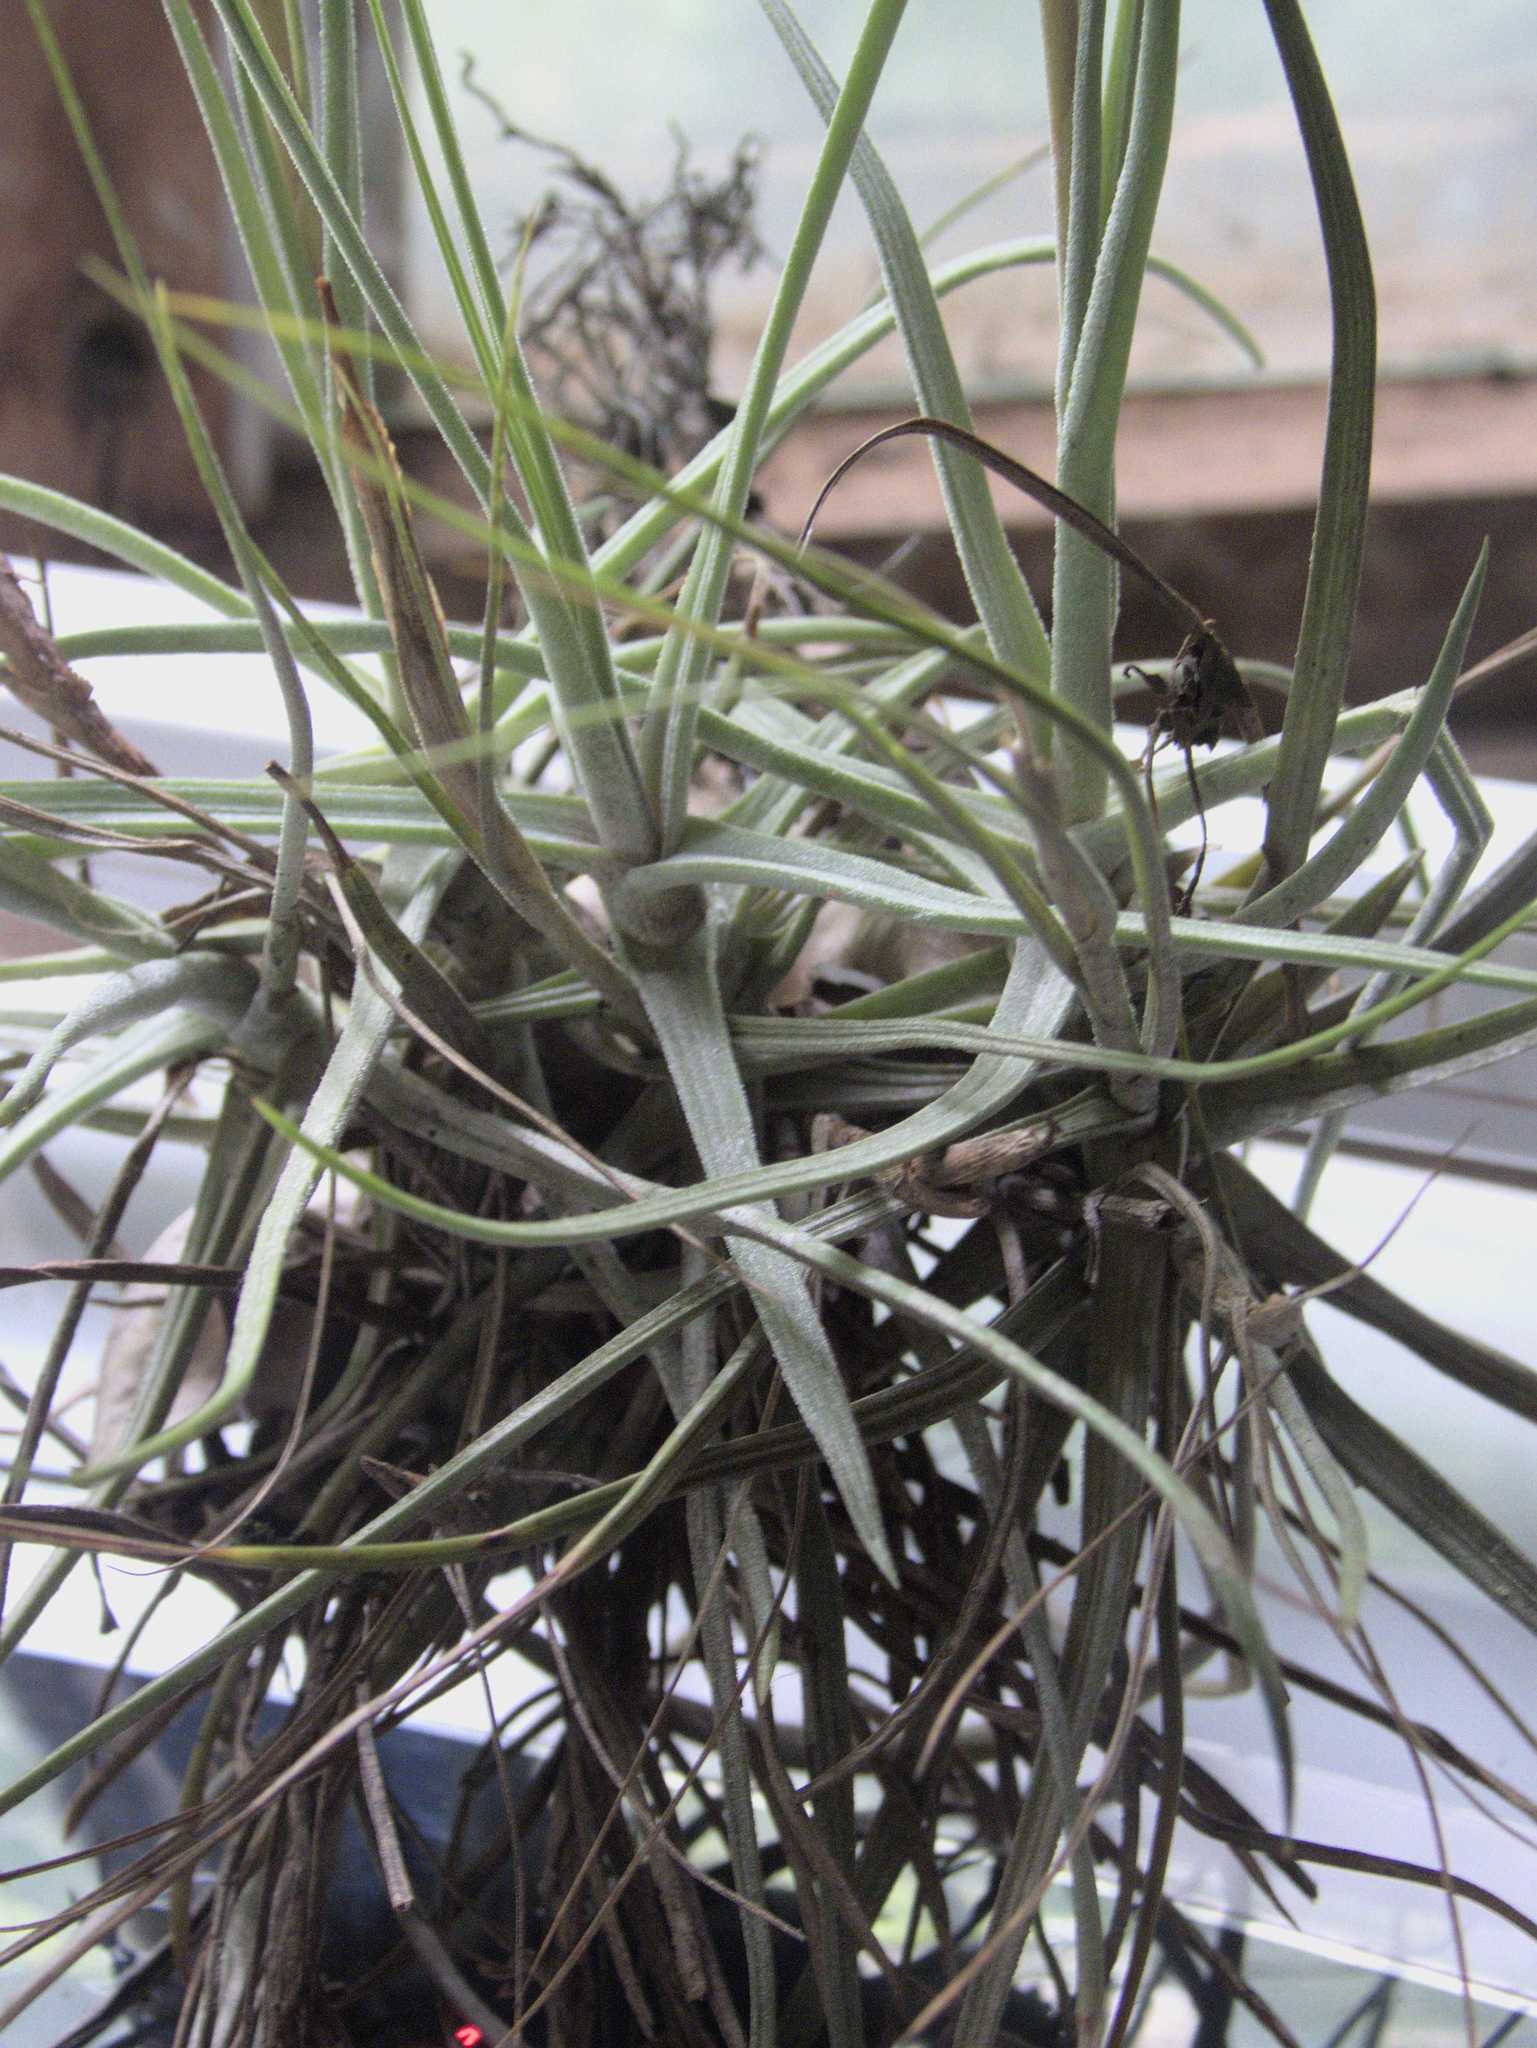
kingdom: Plantae
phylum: Tracheophyta
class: Liliopsida
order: Poales
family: Bromeliaceae
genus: Tillandsia
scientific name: Tillandsia schiedeana
